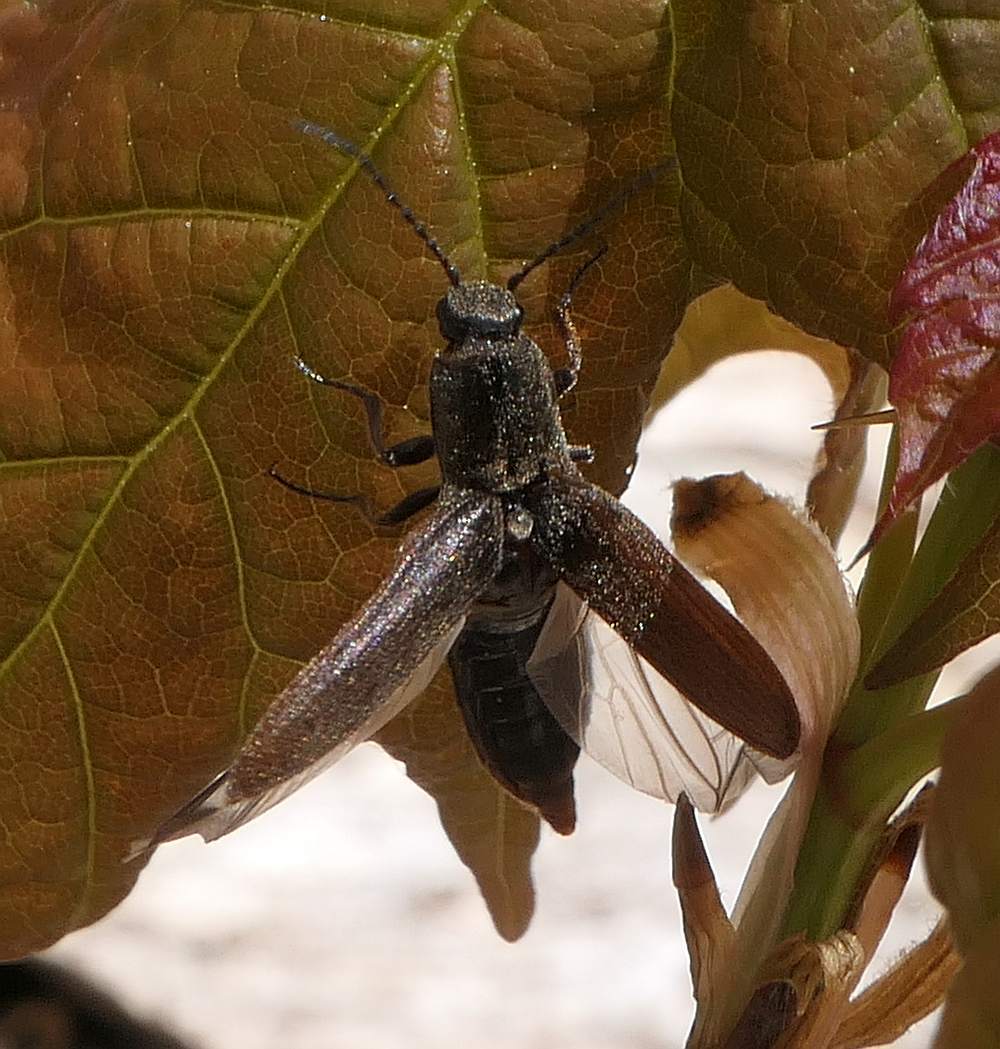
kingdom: Animalia
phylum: Arthropoda
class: Insecta
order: Coleoptera
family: Elateridae
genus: Sylvanelater
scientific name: Sylvanelater cylindriformis
